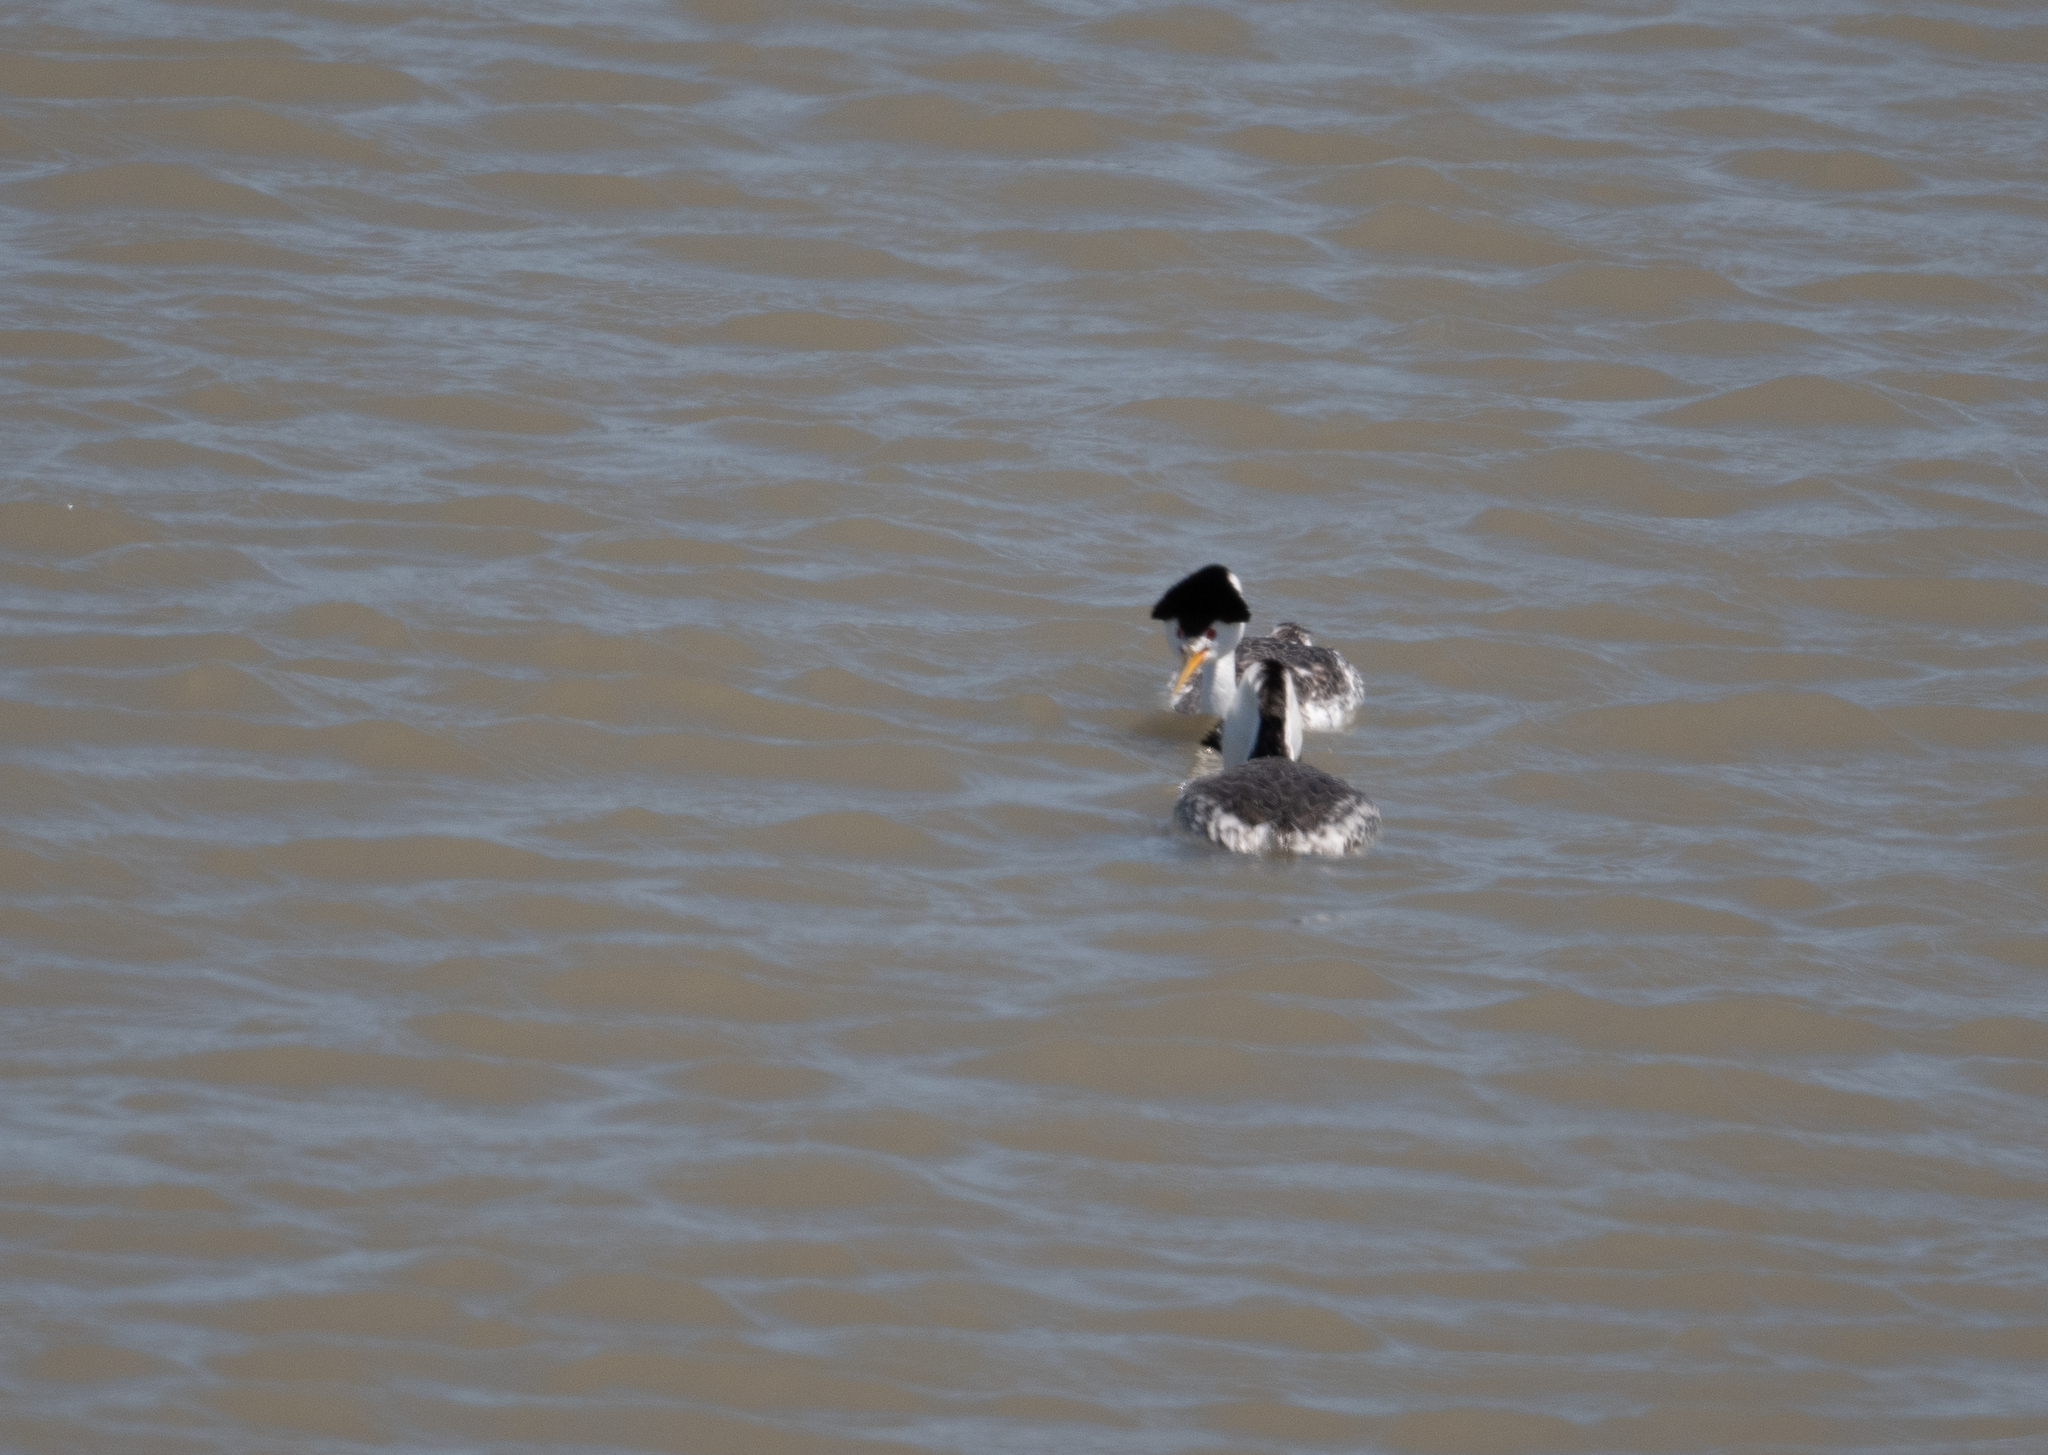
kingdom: Animalia
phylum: Chordata
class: Aves
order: Podicipediformes
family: Podicipedidae
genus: Aechmophorus
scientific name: Aechmophorus clarkii
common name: Clark's grebe
